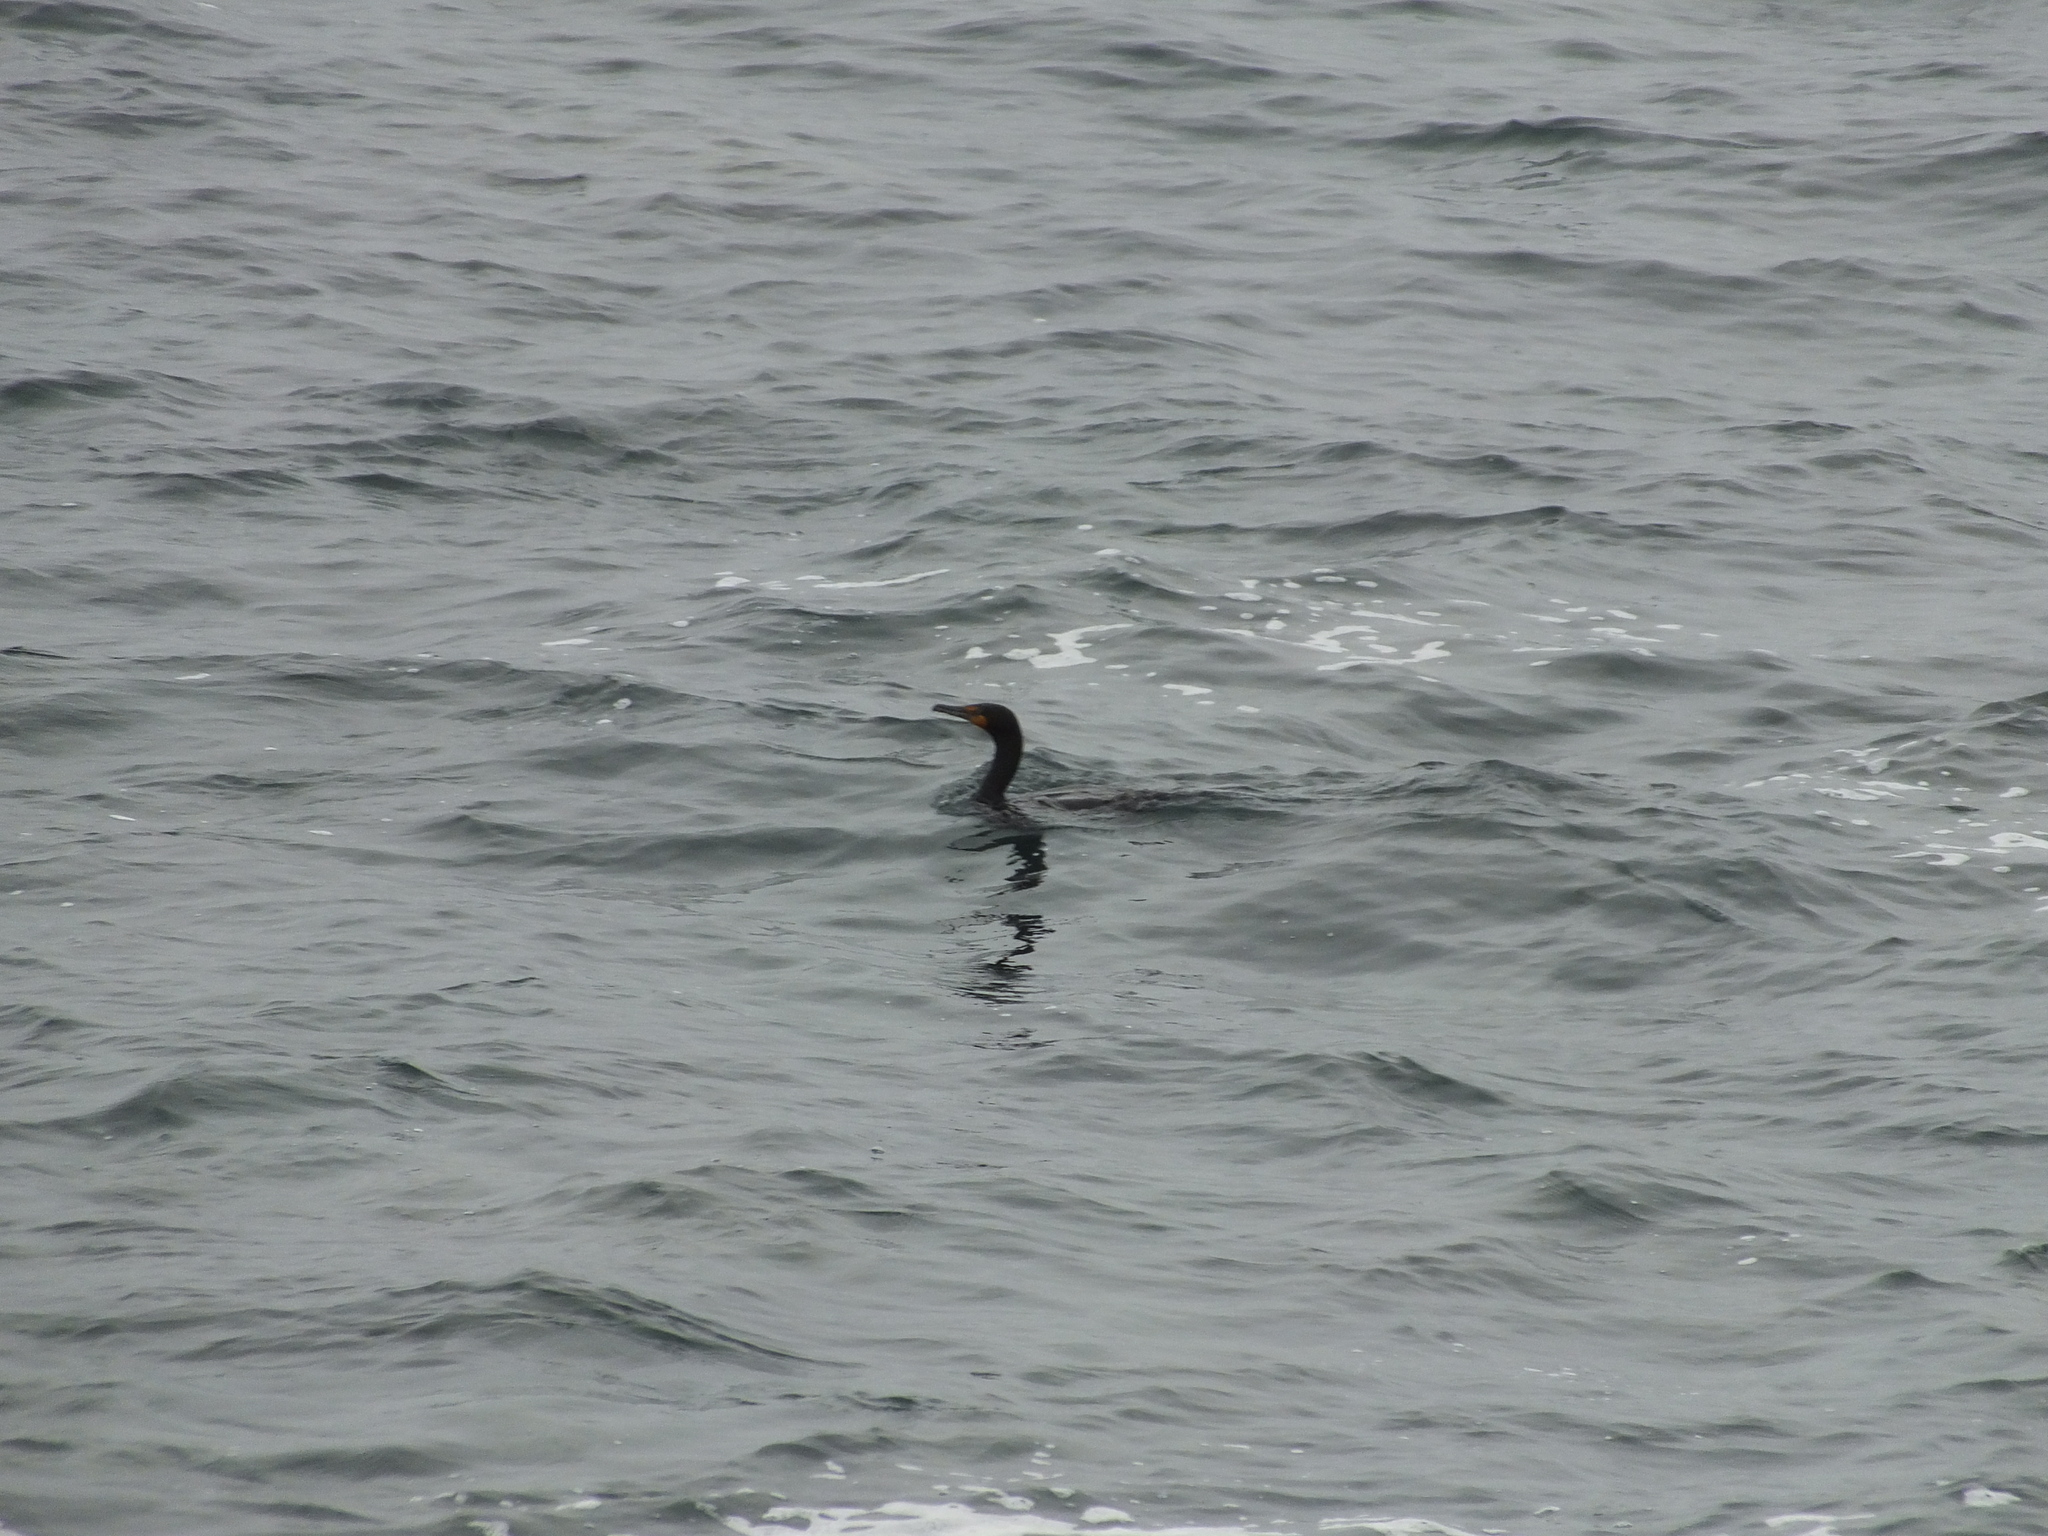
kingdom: Animalia
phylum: Chordata
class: Aves
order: Suliformes
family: Phalacrocoracidae
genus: Phalacrocorax
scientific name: Phalacrocorax auritus
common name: Double-crested cormorant
